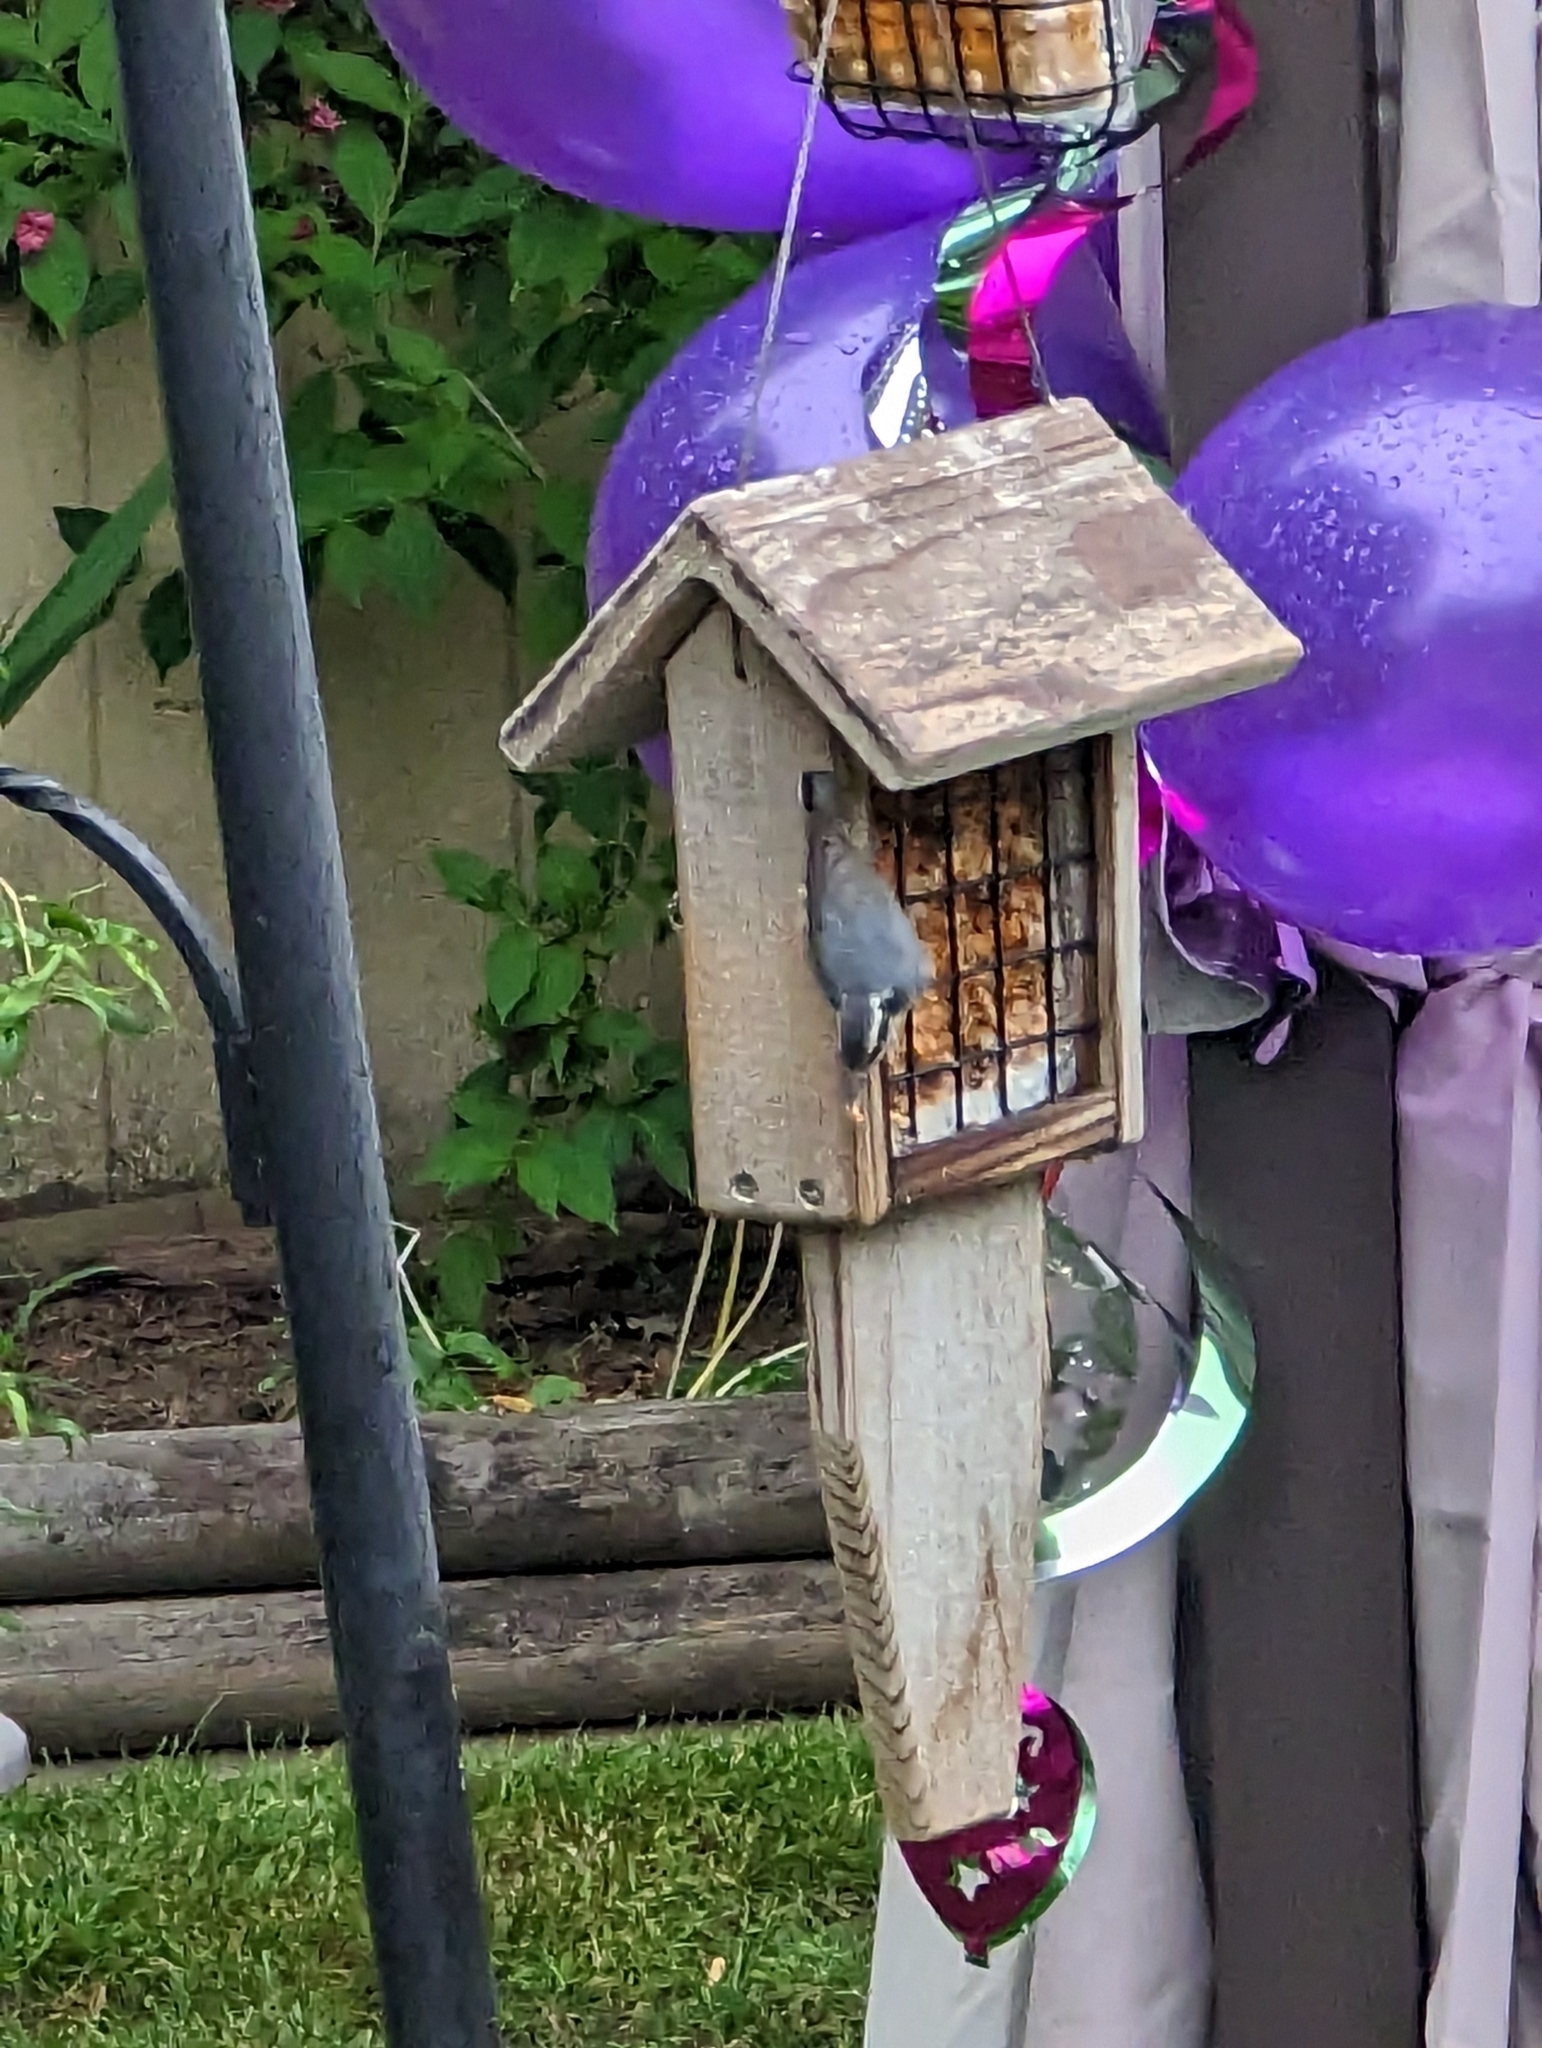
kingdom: Animalia
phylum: Chordata
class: Aves
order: Passeriformes
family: Sittidae
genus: Sitta
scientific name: Sitta canadensis
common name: Red-breasted nuthatch
